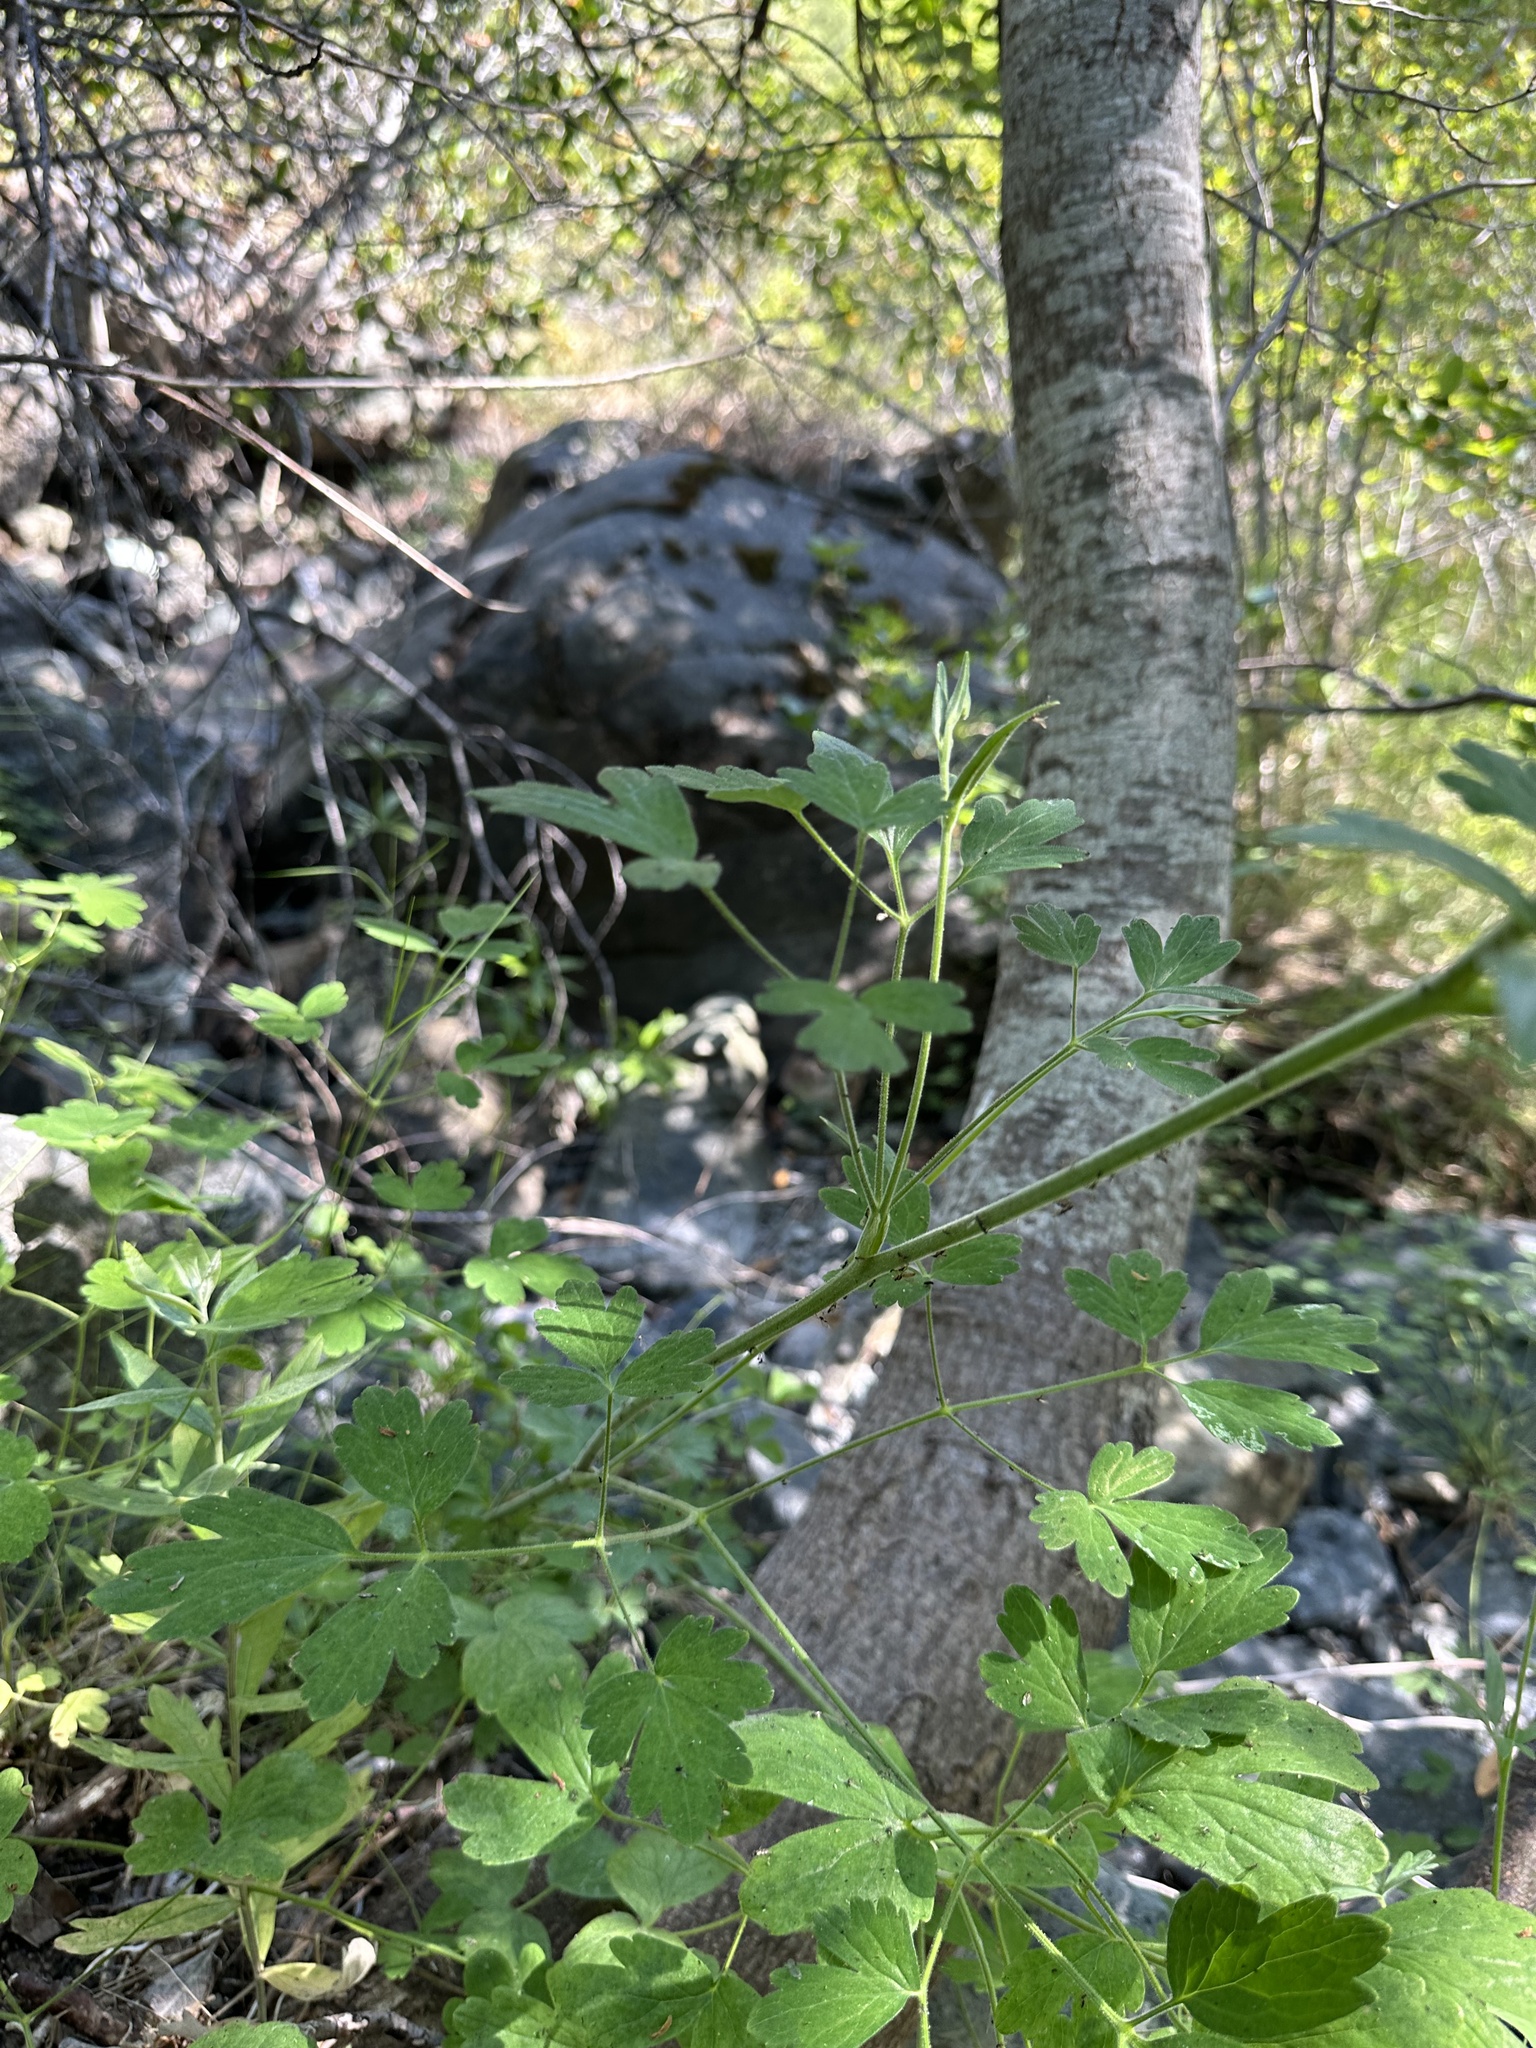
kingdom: Plantae
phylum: Tracheophyta
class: Magnoliopsida
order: Ranunculales
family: Ranunculaceae
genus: Aquilegia
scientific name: Aquilegia eximia
